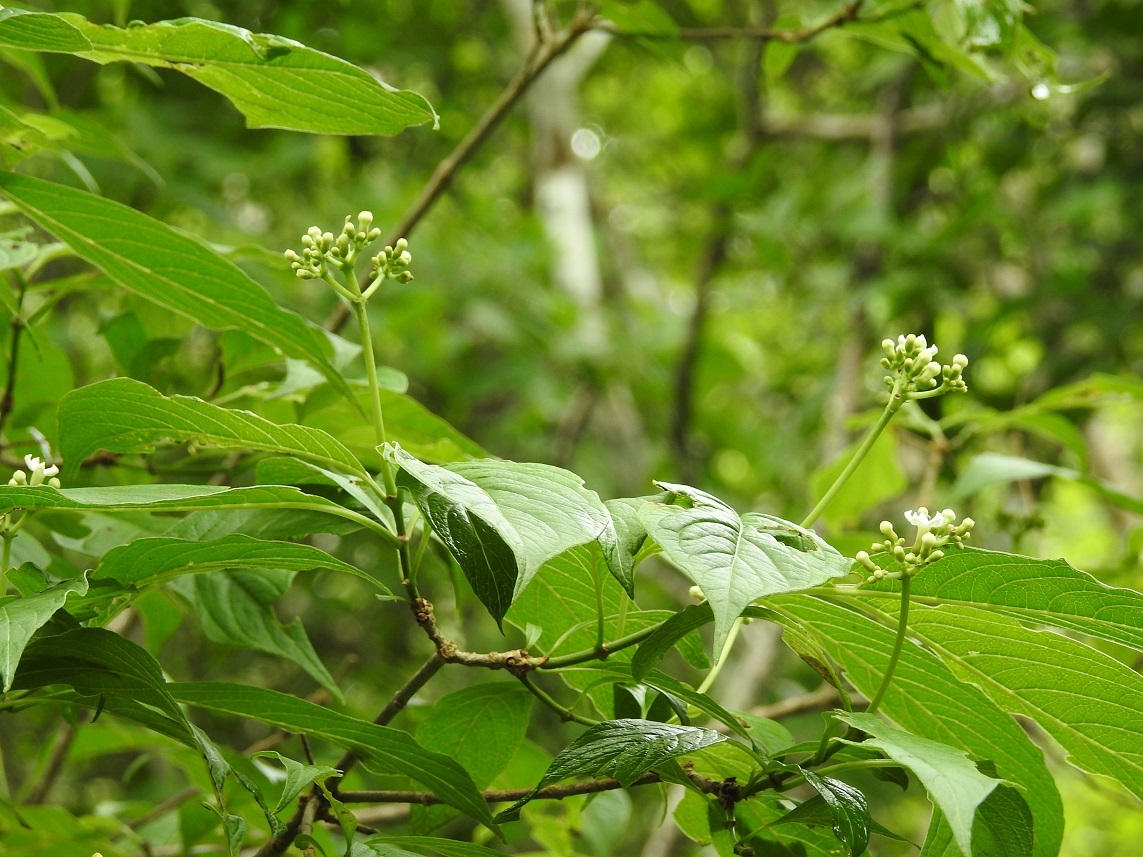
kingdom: Plantae
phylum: Tracheophyta
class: Magnoliopsida
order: Gentianales
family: Rubiaceae
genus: Eumachia
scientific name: Eumachia microdon
